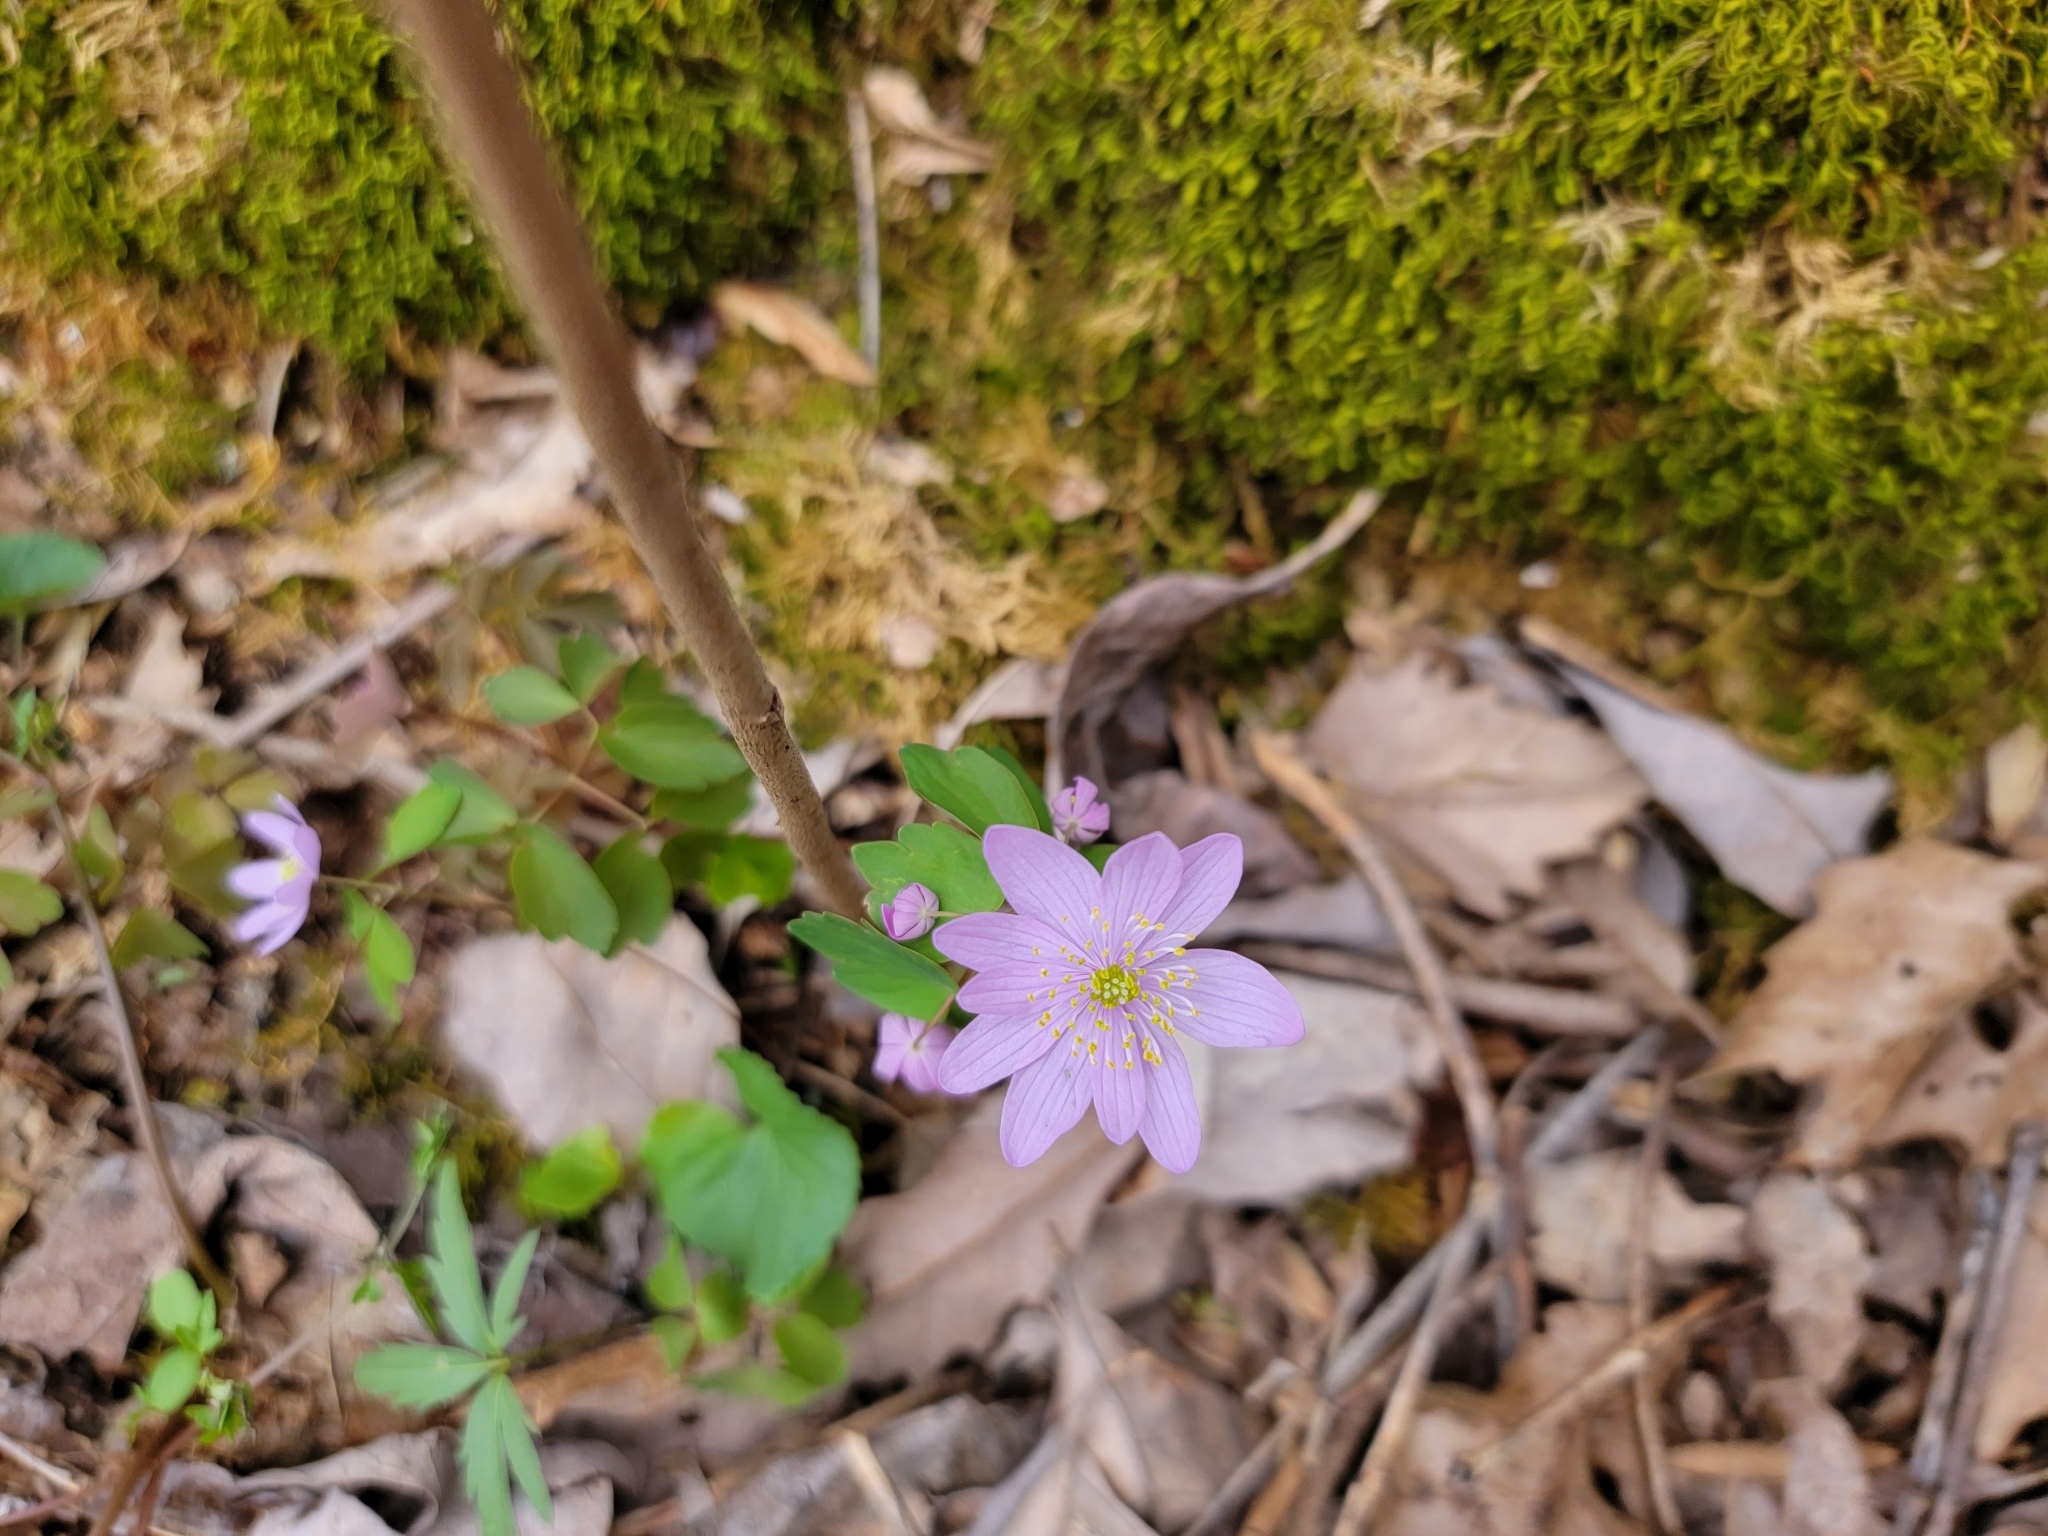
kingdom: Plantae
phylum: Tracheophyta
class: Magnoliopsida
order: Ranunculales
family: Ranunculaceae
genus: Thalictrum
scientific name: Thalictrum thalictroides
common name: Rue-anemone
